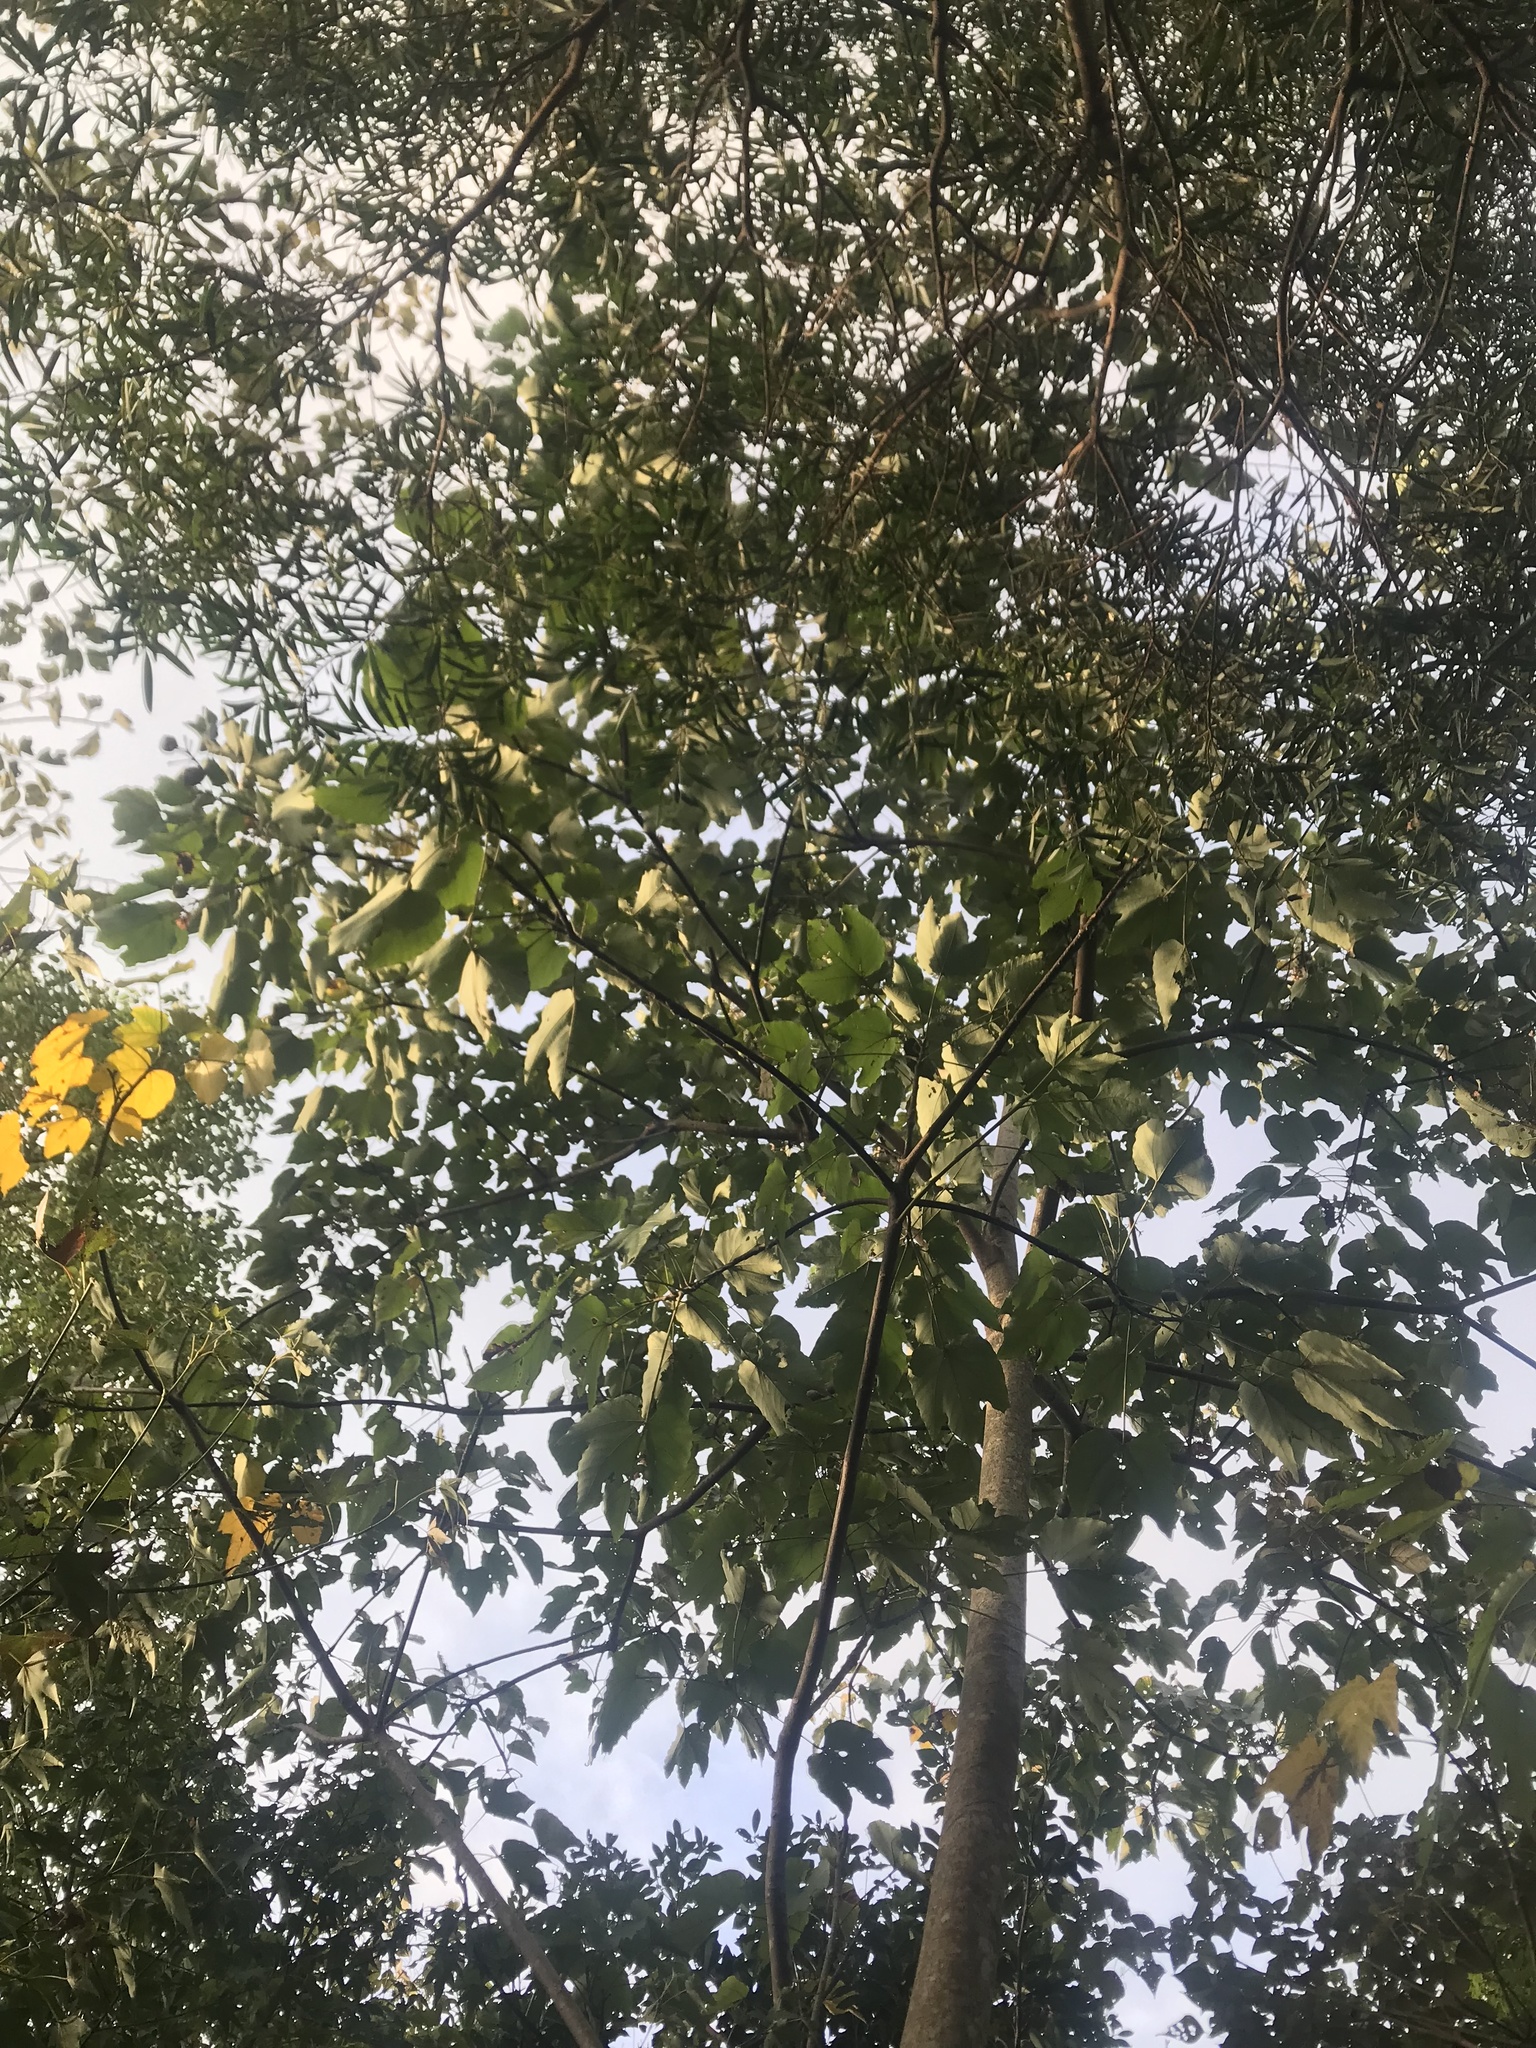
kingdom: Plantae
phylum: Tracheophyta
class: Magnoliopsida
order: Malpighiales
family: Euphorbiaceae
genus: Vernicia
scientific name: Vernicia montana
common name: Mu oil tree
